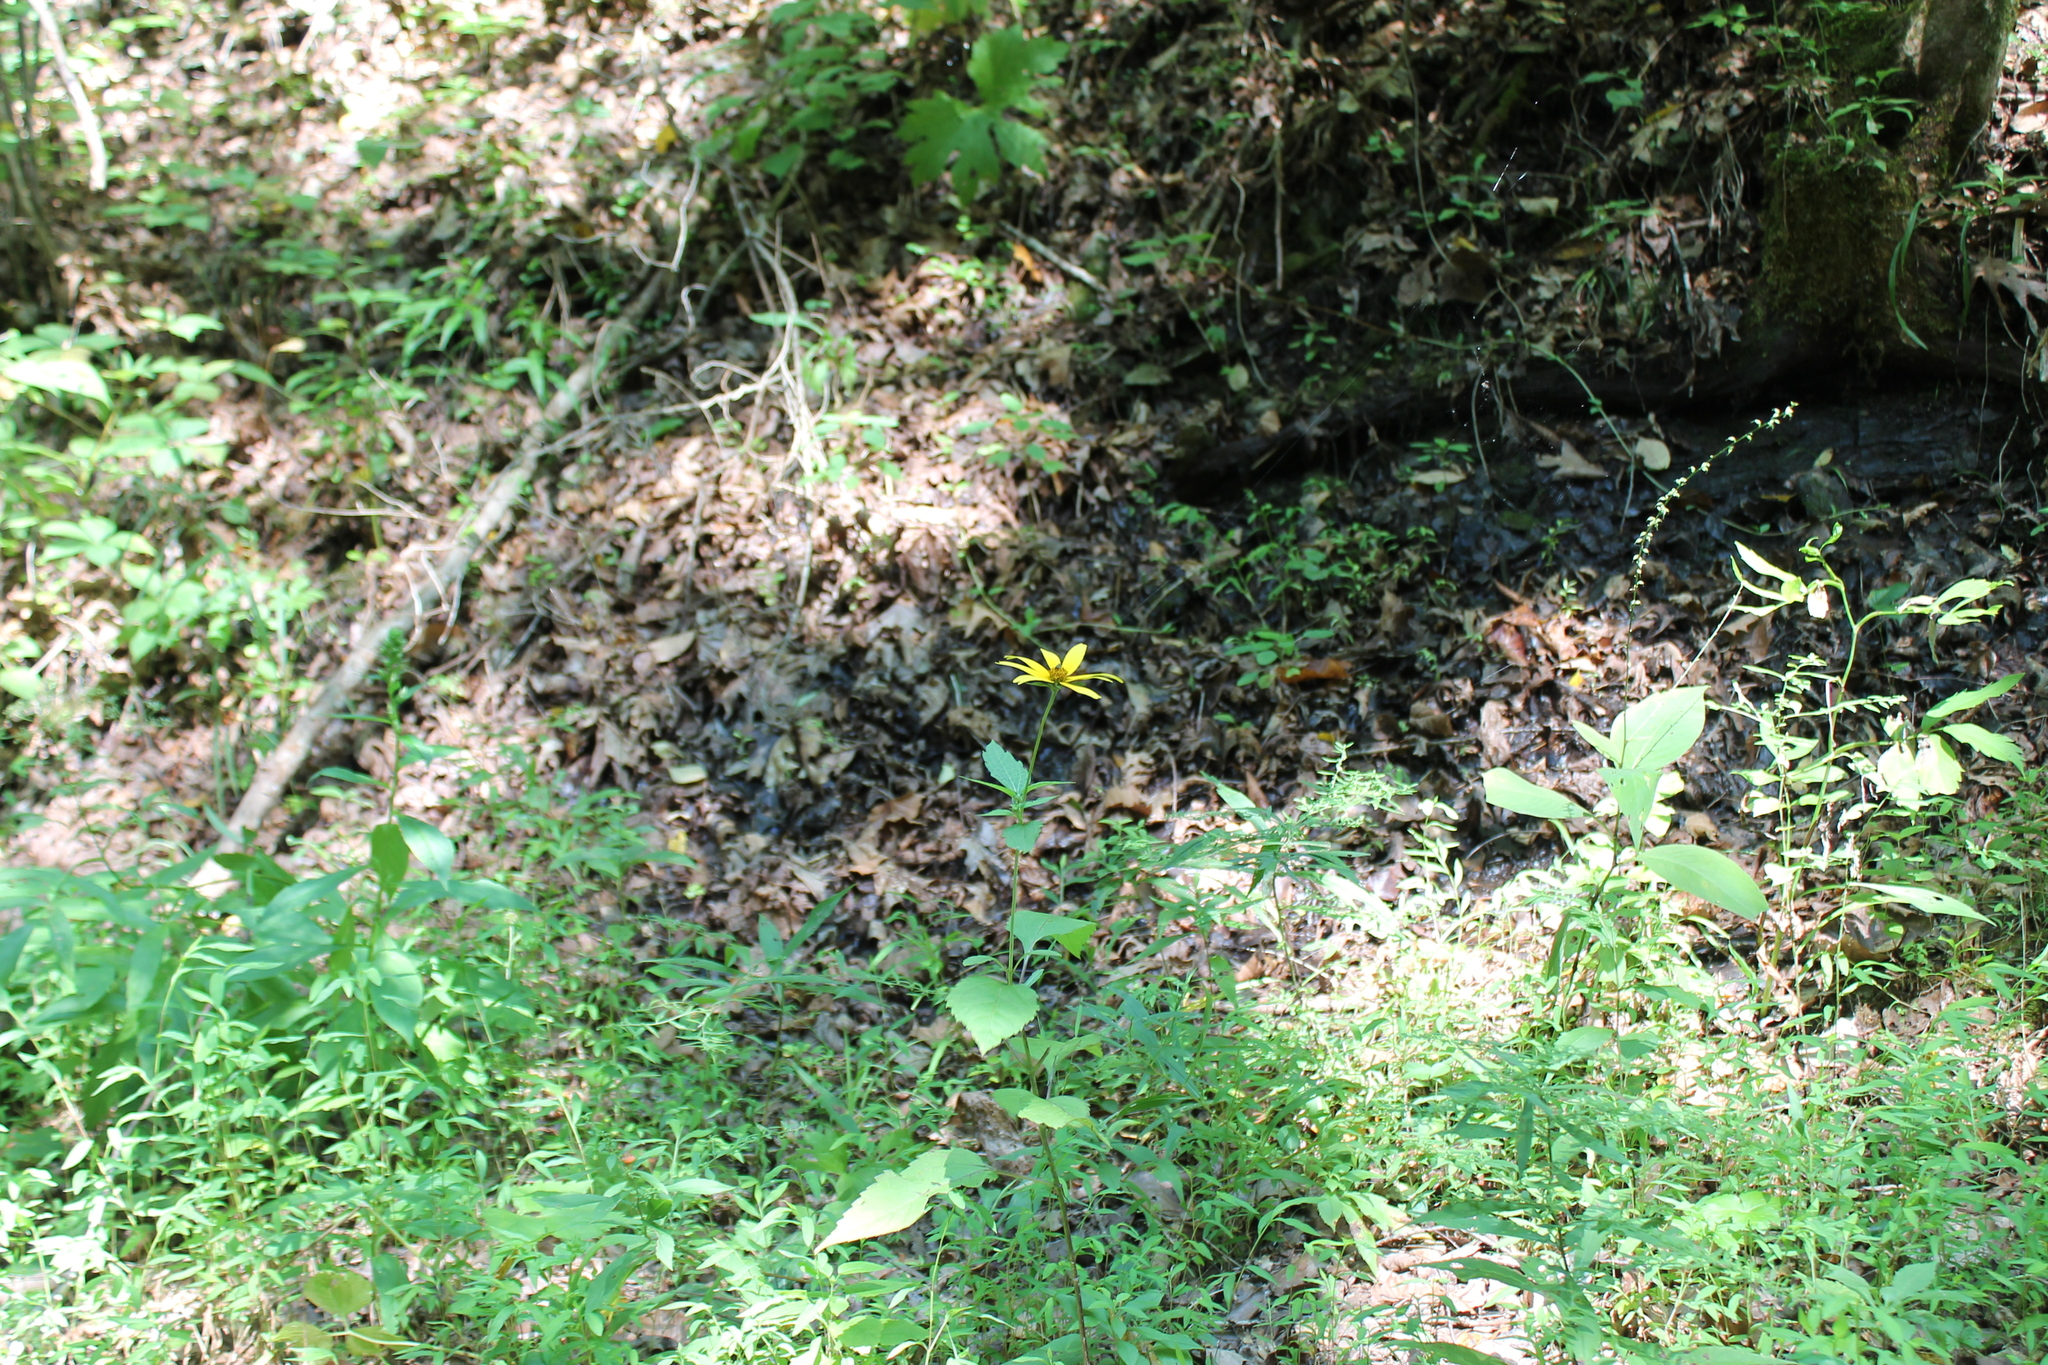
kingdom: Plantae
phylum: Tracheophyta
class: Magnoliopsida
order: Asterales
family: Asteraceae
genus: Helianthus
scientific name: Helianthus decapetalus
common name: Thin-leaved sunflower
